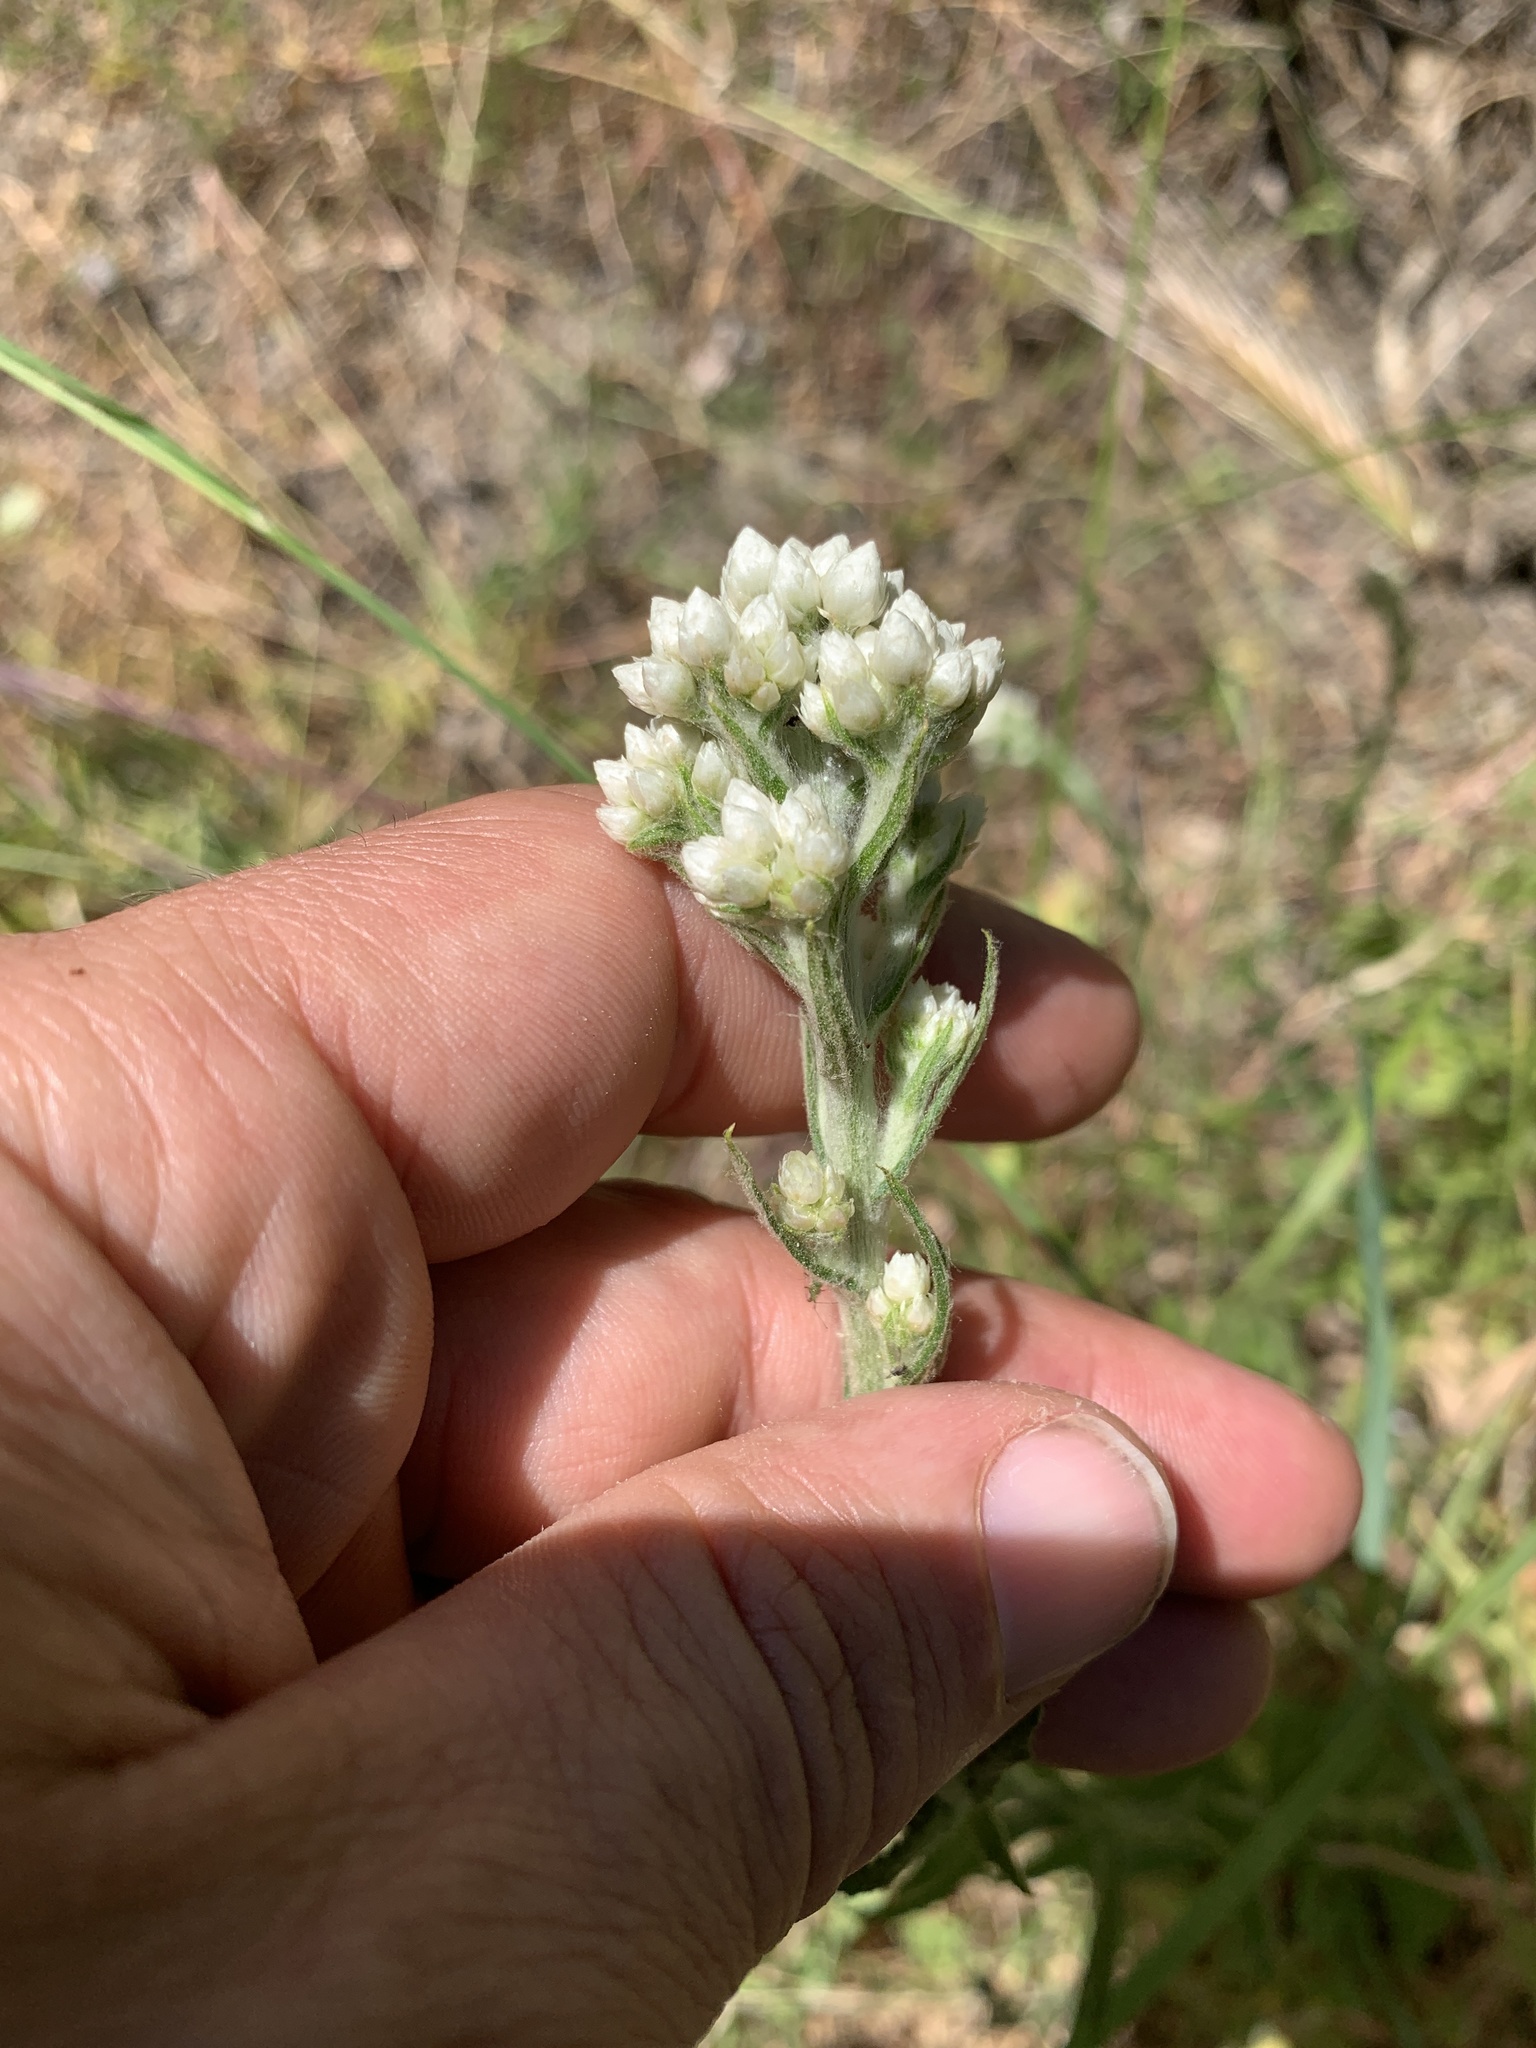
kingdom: Plantae
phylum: Tracheophyta
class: Magnoliopsida
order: Asterales
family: Asteraceae
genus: Pseudognaphalium
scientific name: Pseudognaphalium californicum
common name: California rabbit-tobacco
